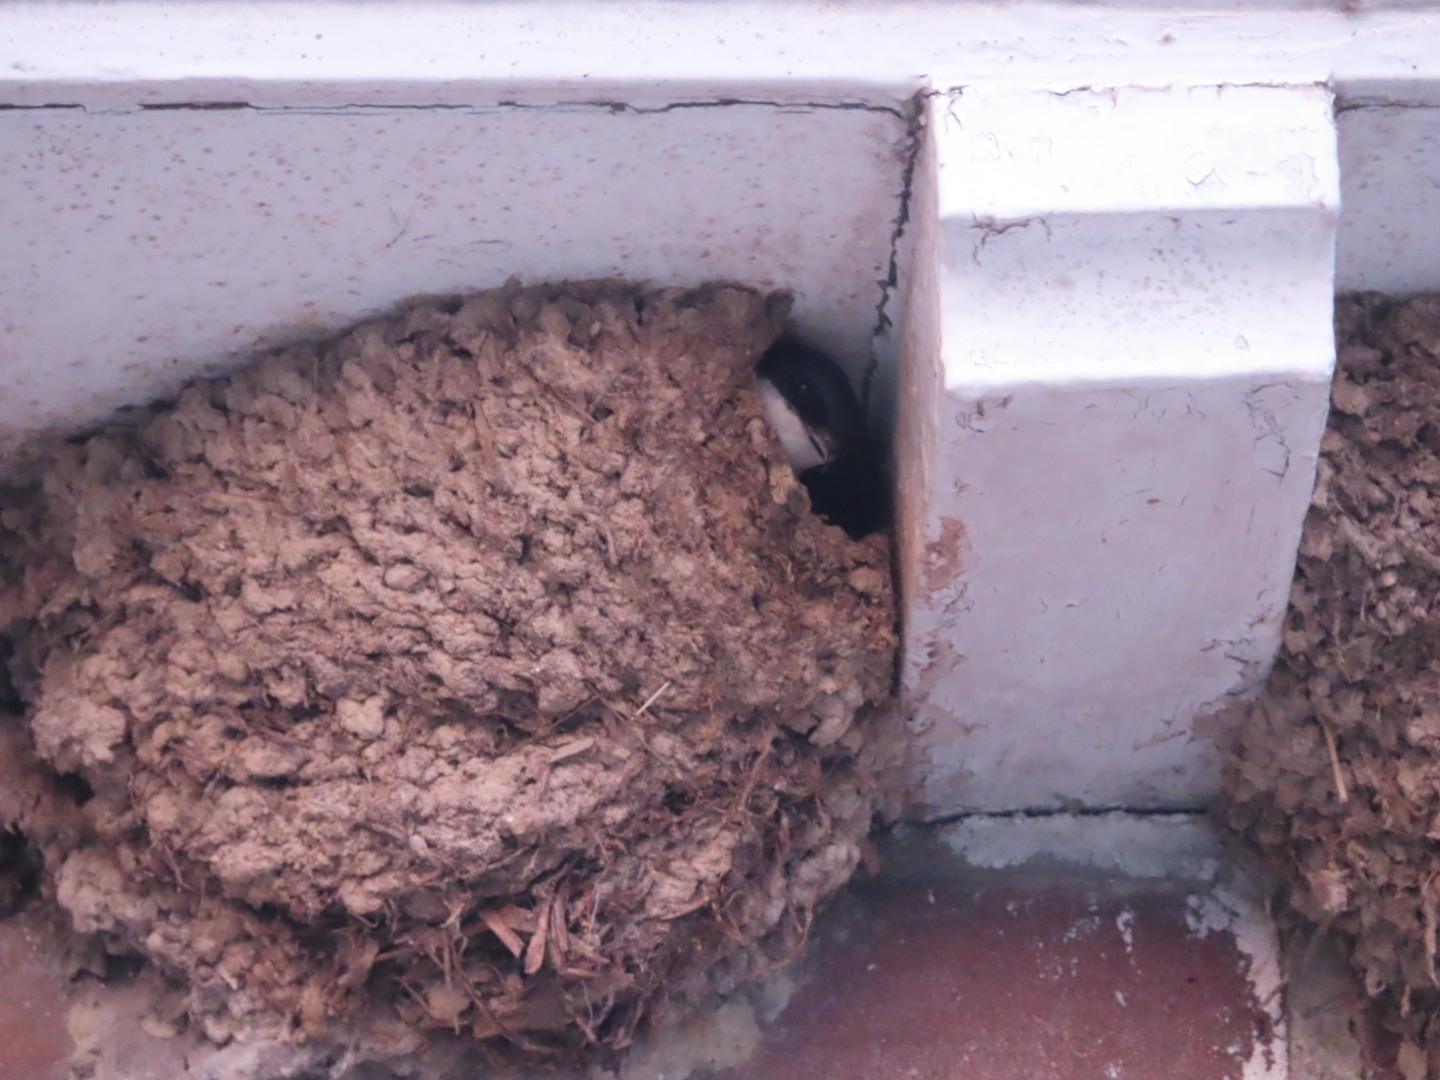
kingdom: Animalia
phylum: Chordata
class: Aves
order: Passeriformes
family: Hirundinidae
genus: Delichon
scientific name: Delichon urbicum
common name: Common house martin
